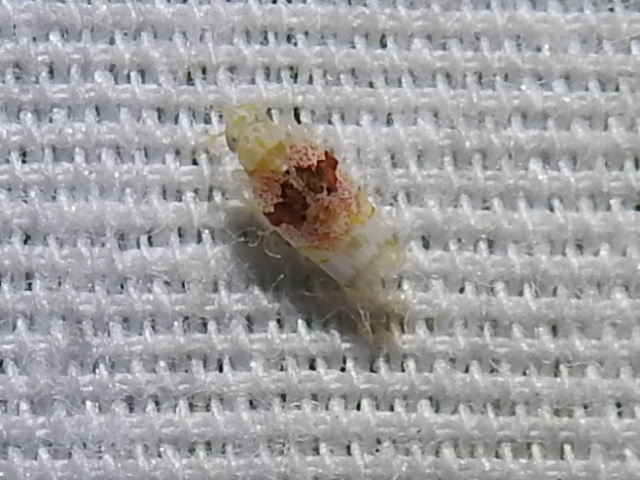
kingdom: Animalia
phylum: Arthropoda
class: Insecta
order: Hemiptera
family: Cicadellidae
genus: Hymetta
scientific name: Hymetta anthisma
